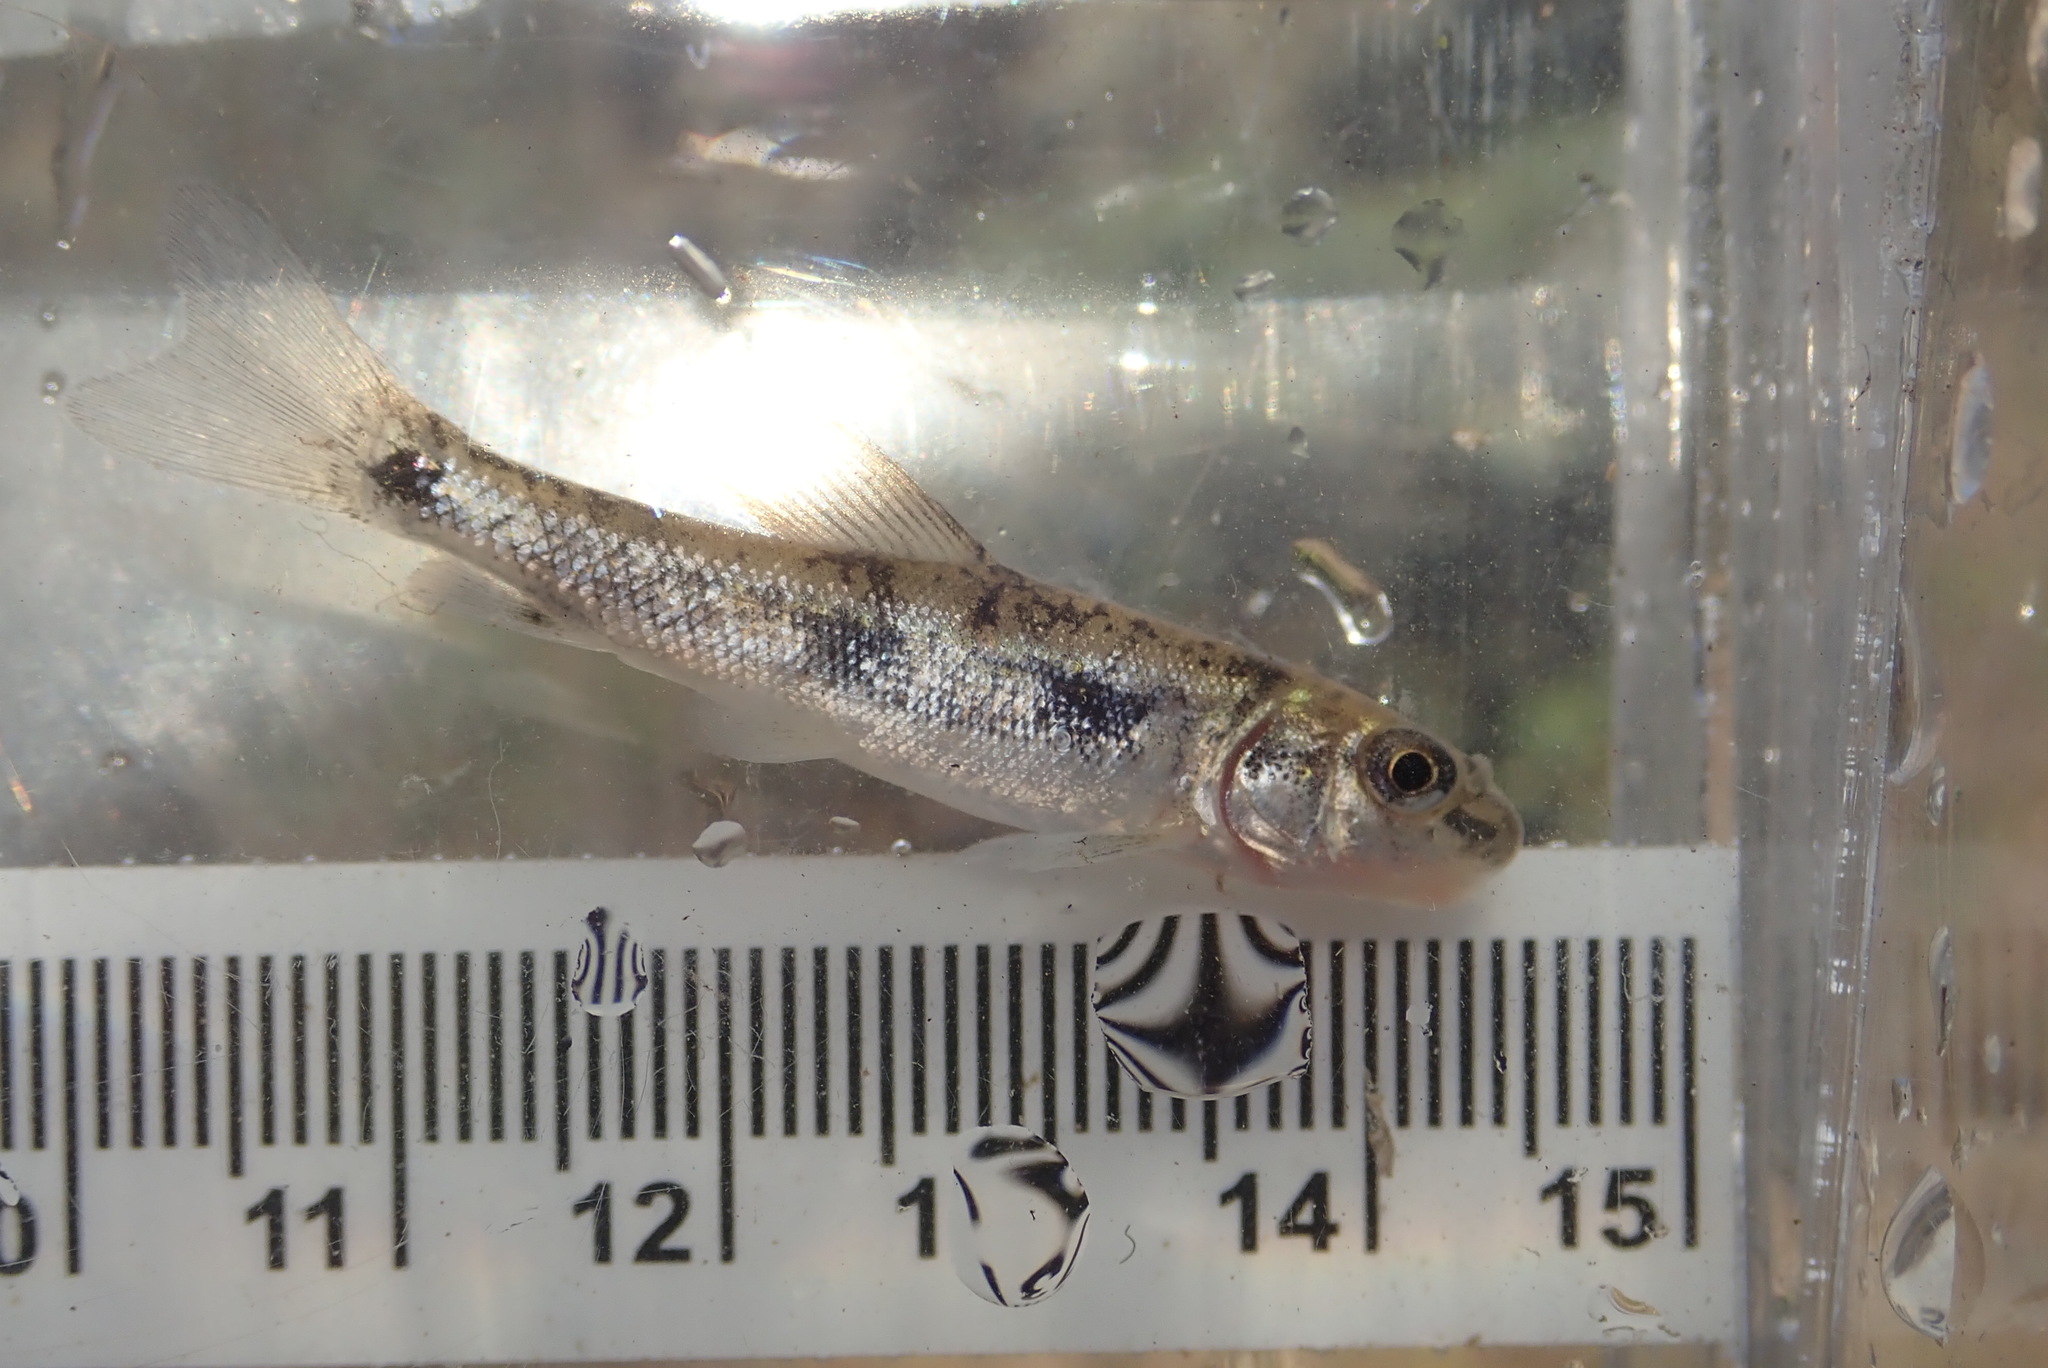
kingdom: Animalia
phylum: Chordata
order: Cypriniformes
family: Catostomidae
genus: Catostomus
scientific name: Catostomus commersonii
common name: White sucker
